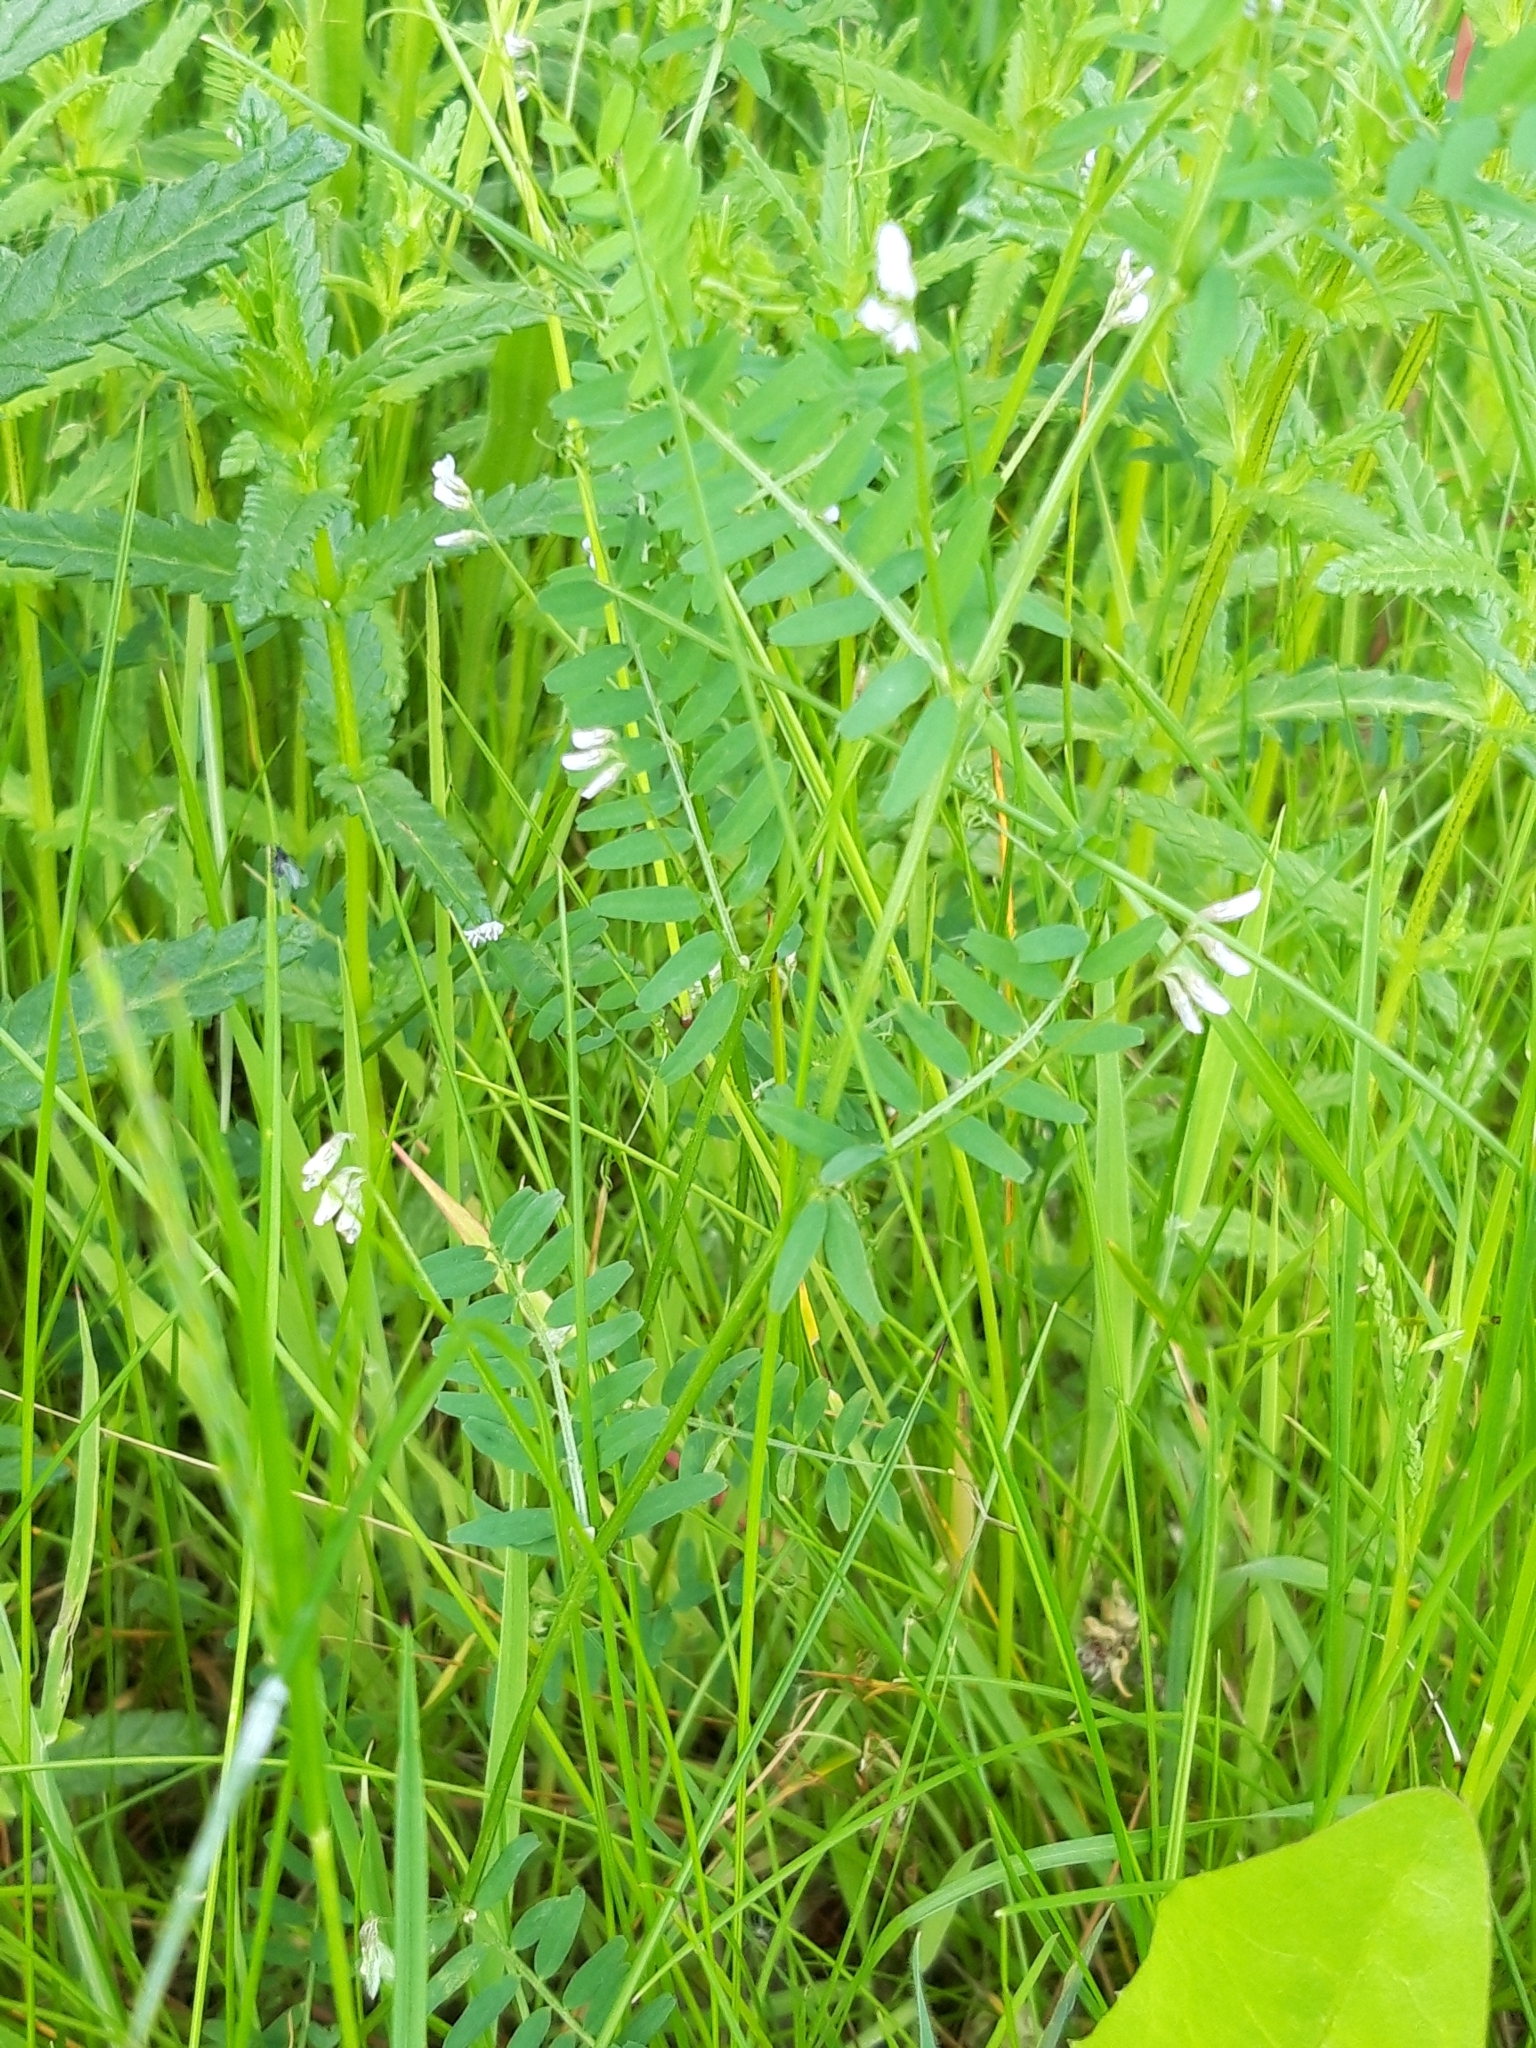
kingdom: Plantae
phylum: Tracheophyta
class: Magnoliopsida
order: Fabales
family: Fabaceae
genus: Vicia
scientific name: Vicia hirsuta
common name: Tiny vetch
